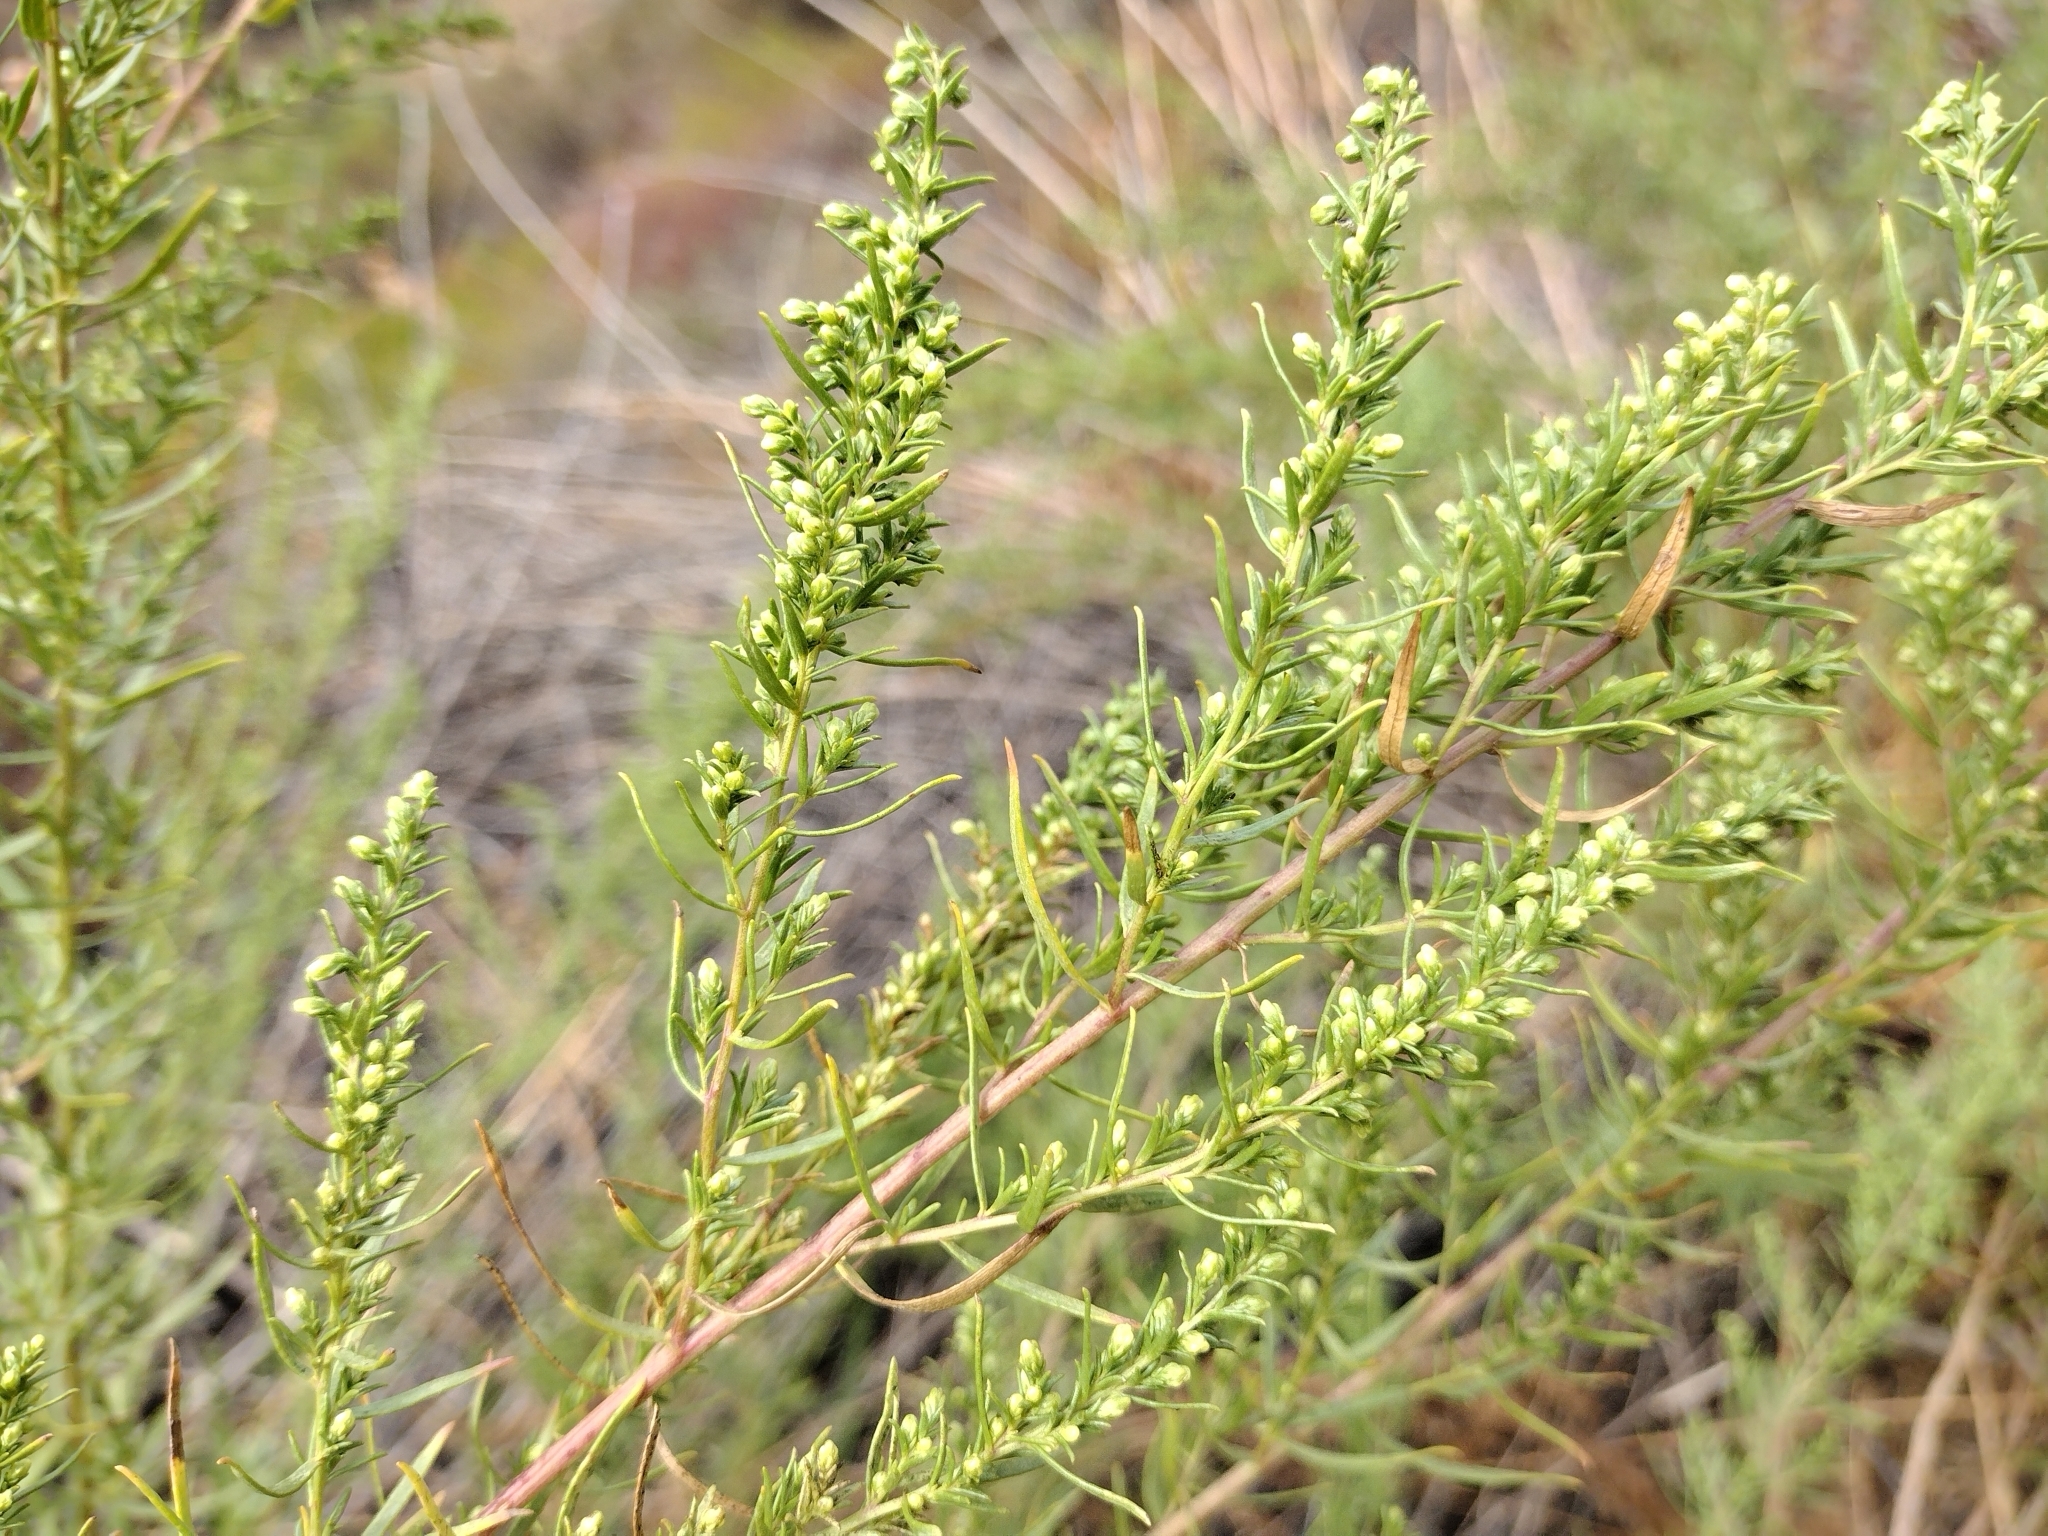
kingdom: Plantae
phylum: Tracheophyta
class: Magnoliopsida
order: Asterales
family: Asteraceae
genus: Artemisia
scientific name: Artemisia dracunculus
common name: Tarragon
